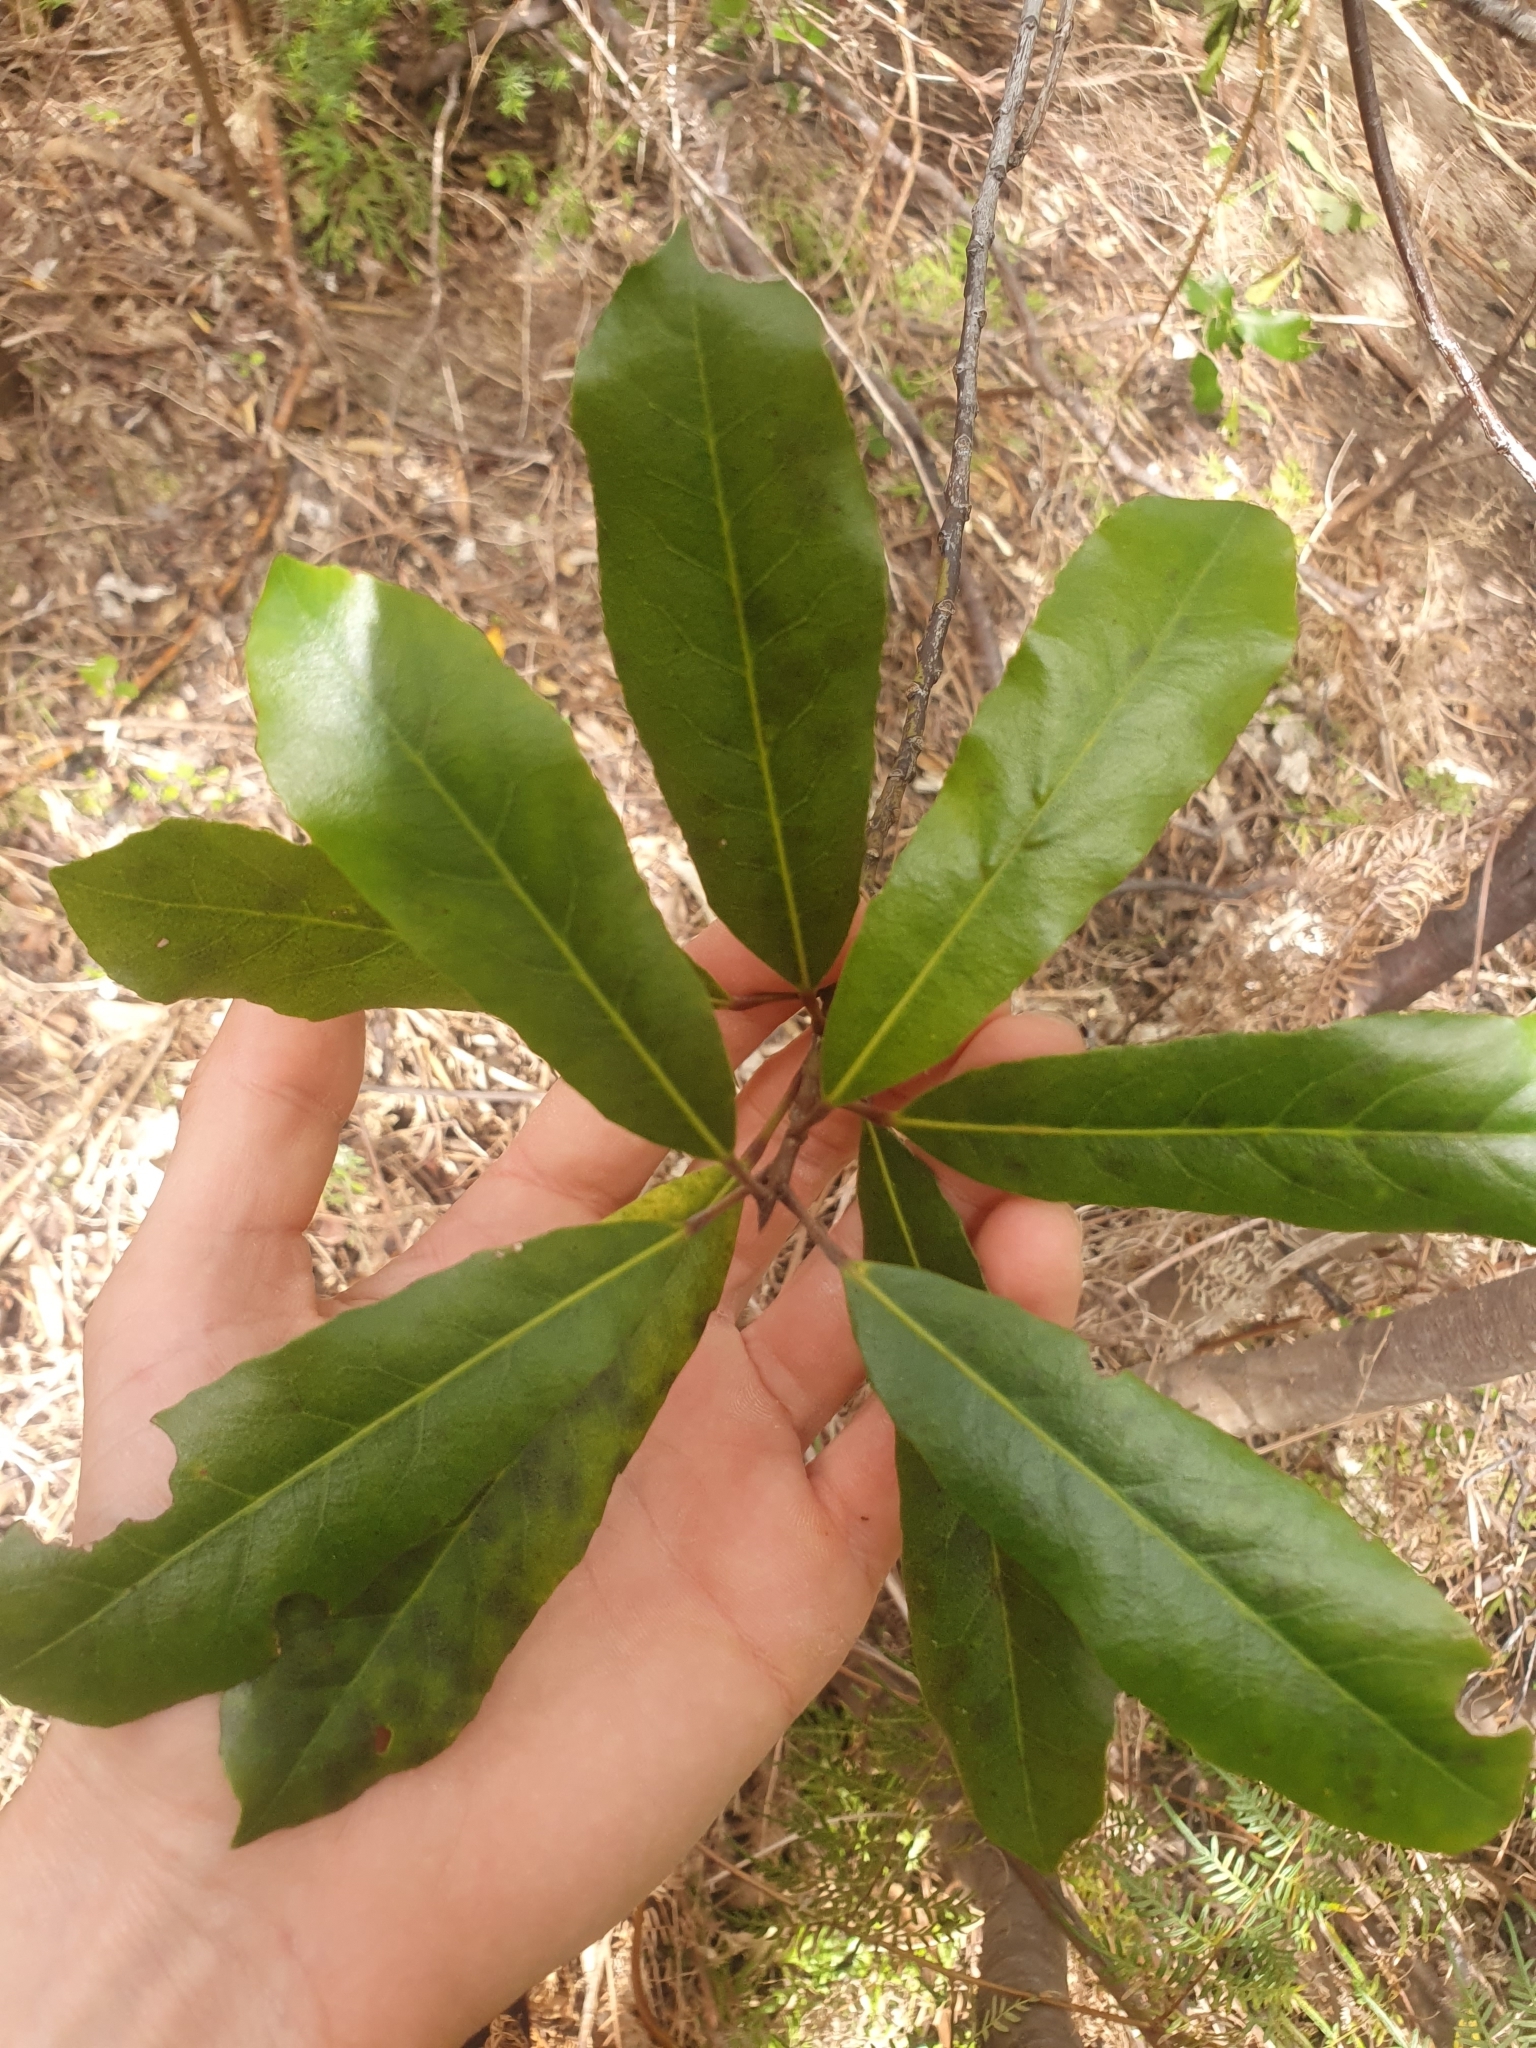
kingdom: Plantae
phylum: Tracheophyta
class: Magnoliopsida
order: Oxalidales
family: Elaeocarpaceae
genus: Elaeocarpus
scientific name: Elaeocarpus dentatus
